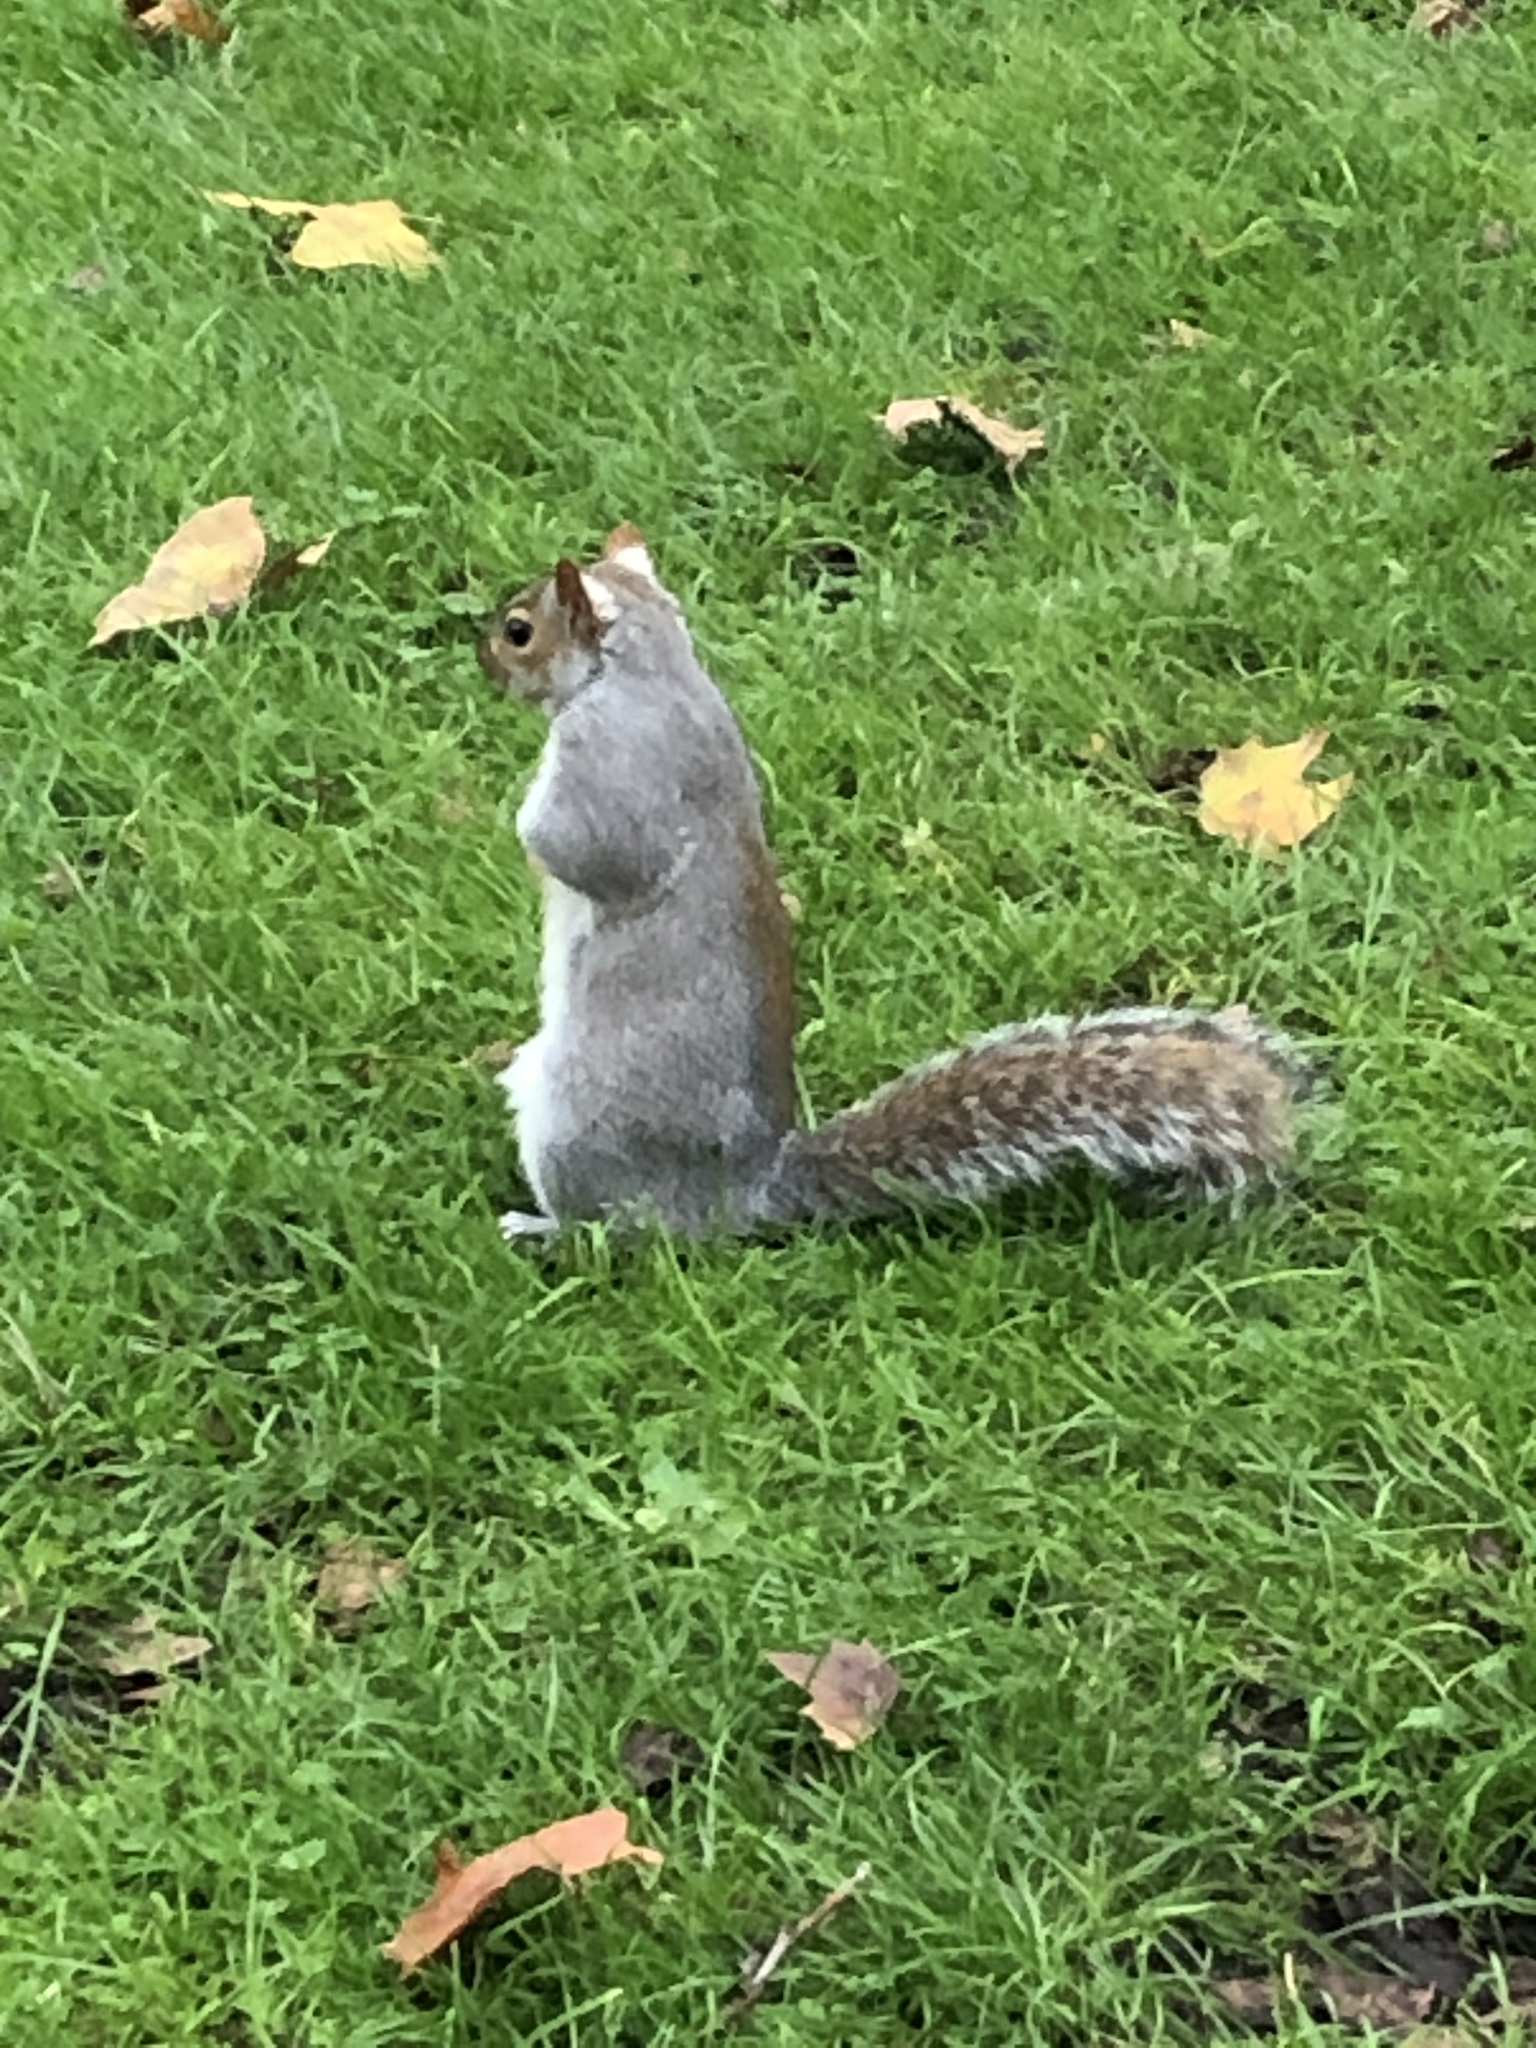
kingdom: Animalia
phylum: Chordata
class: Mammalia
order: Rodentia
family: Sciuridae
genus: Sciurus
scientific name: Sciurus carolinensis
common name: Eastern gray squirrel
